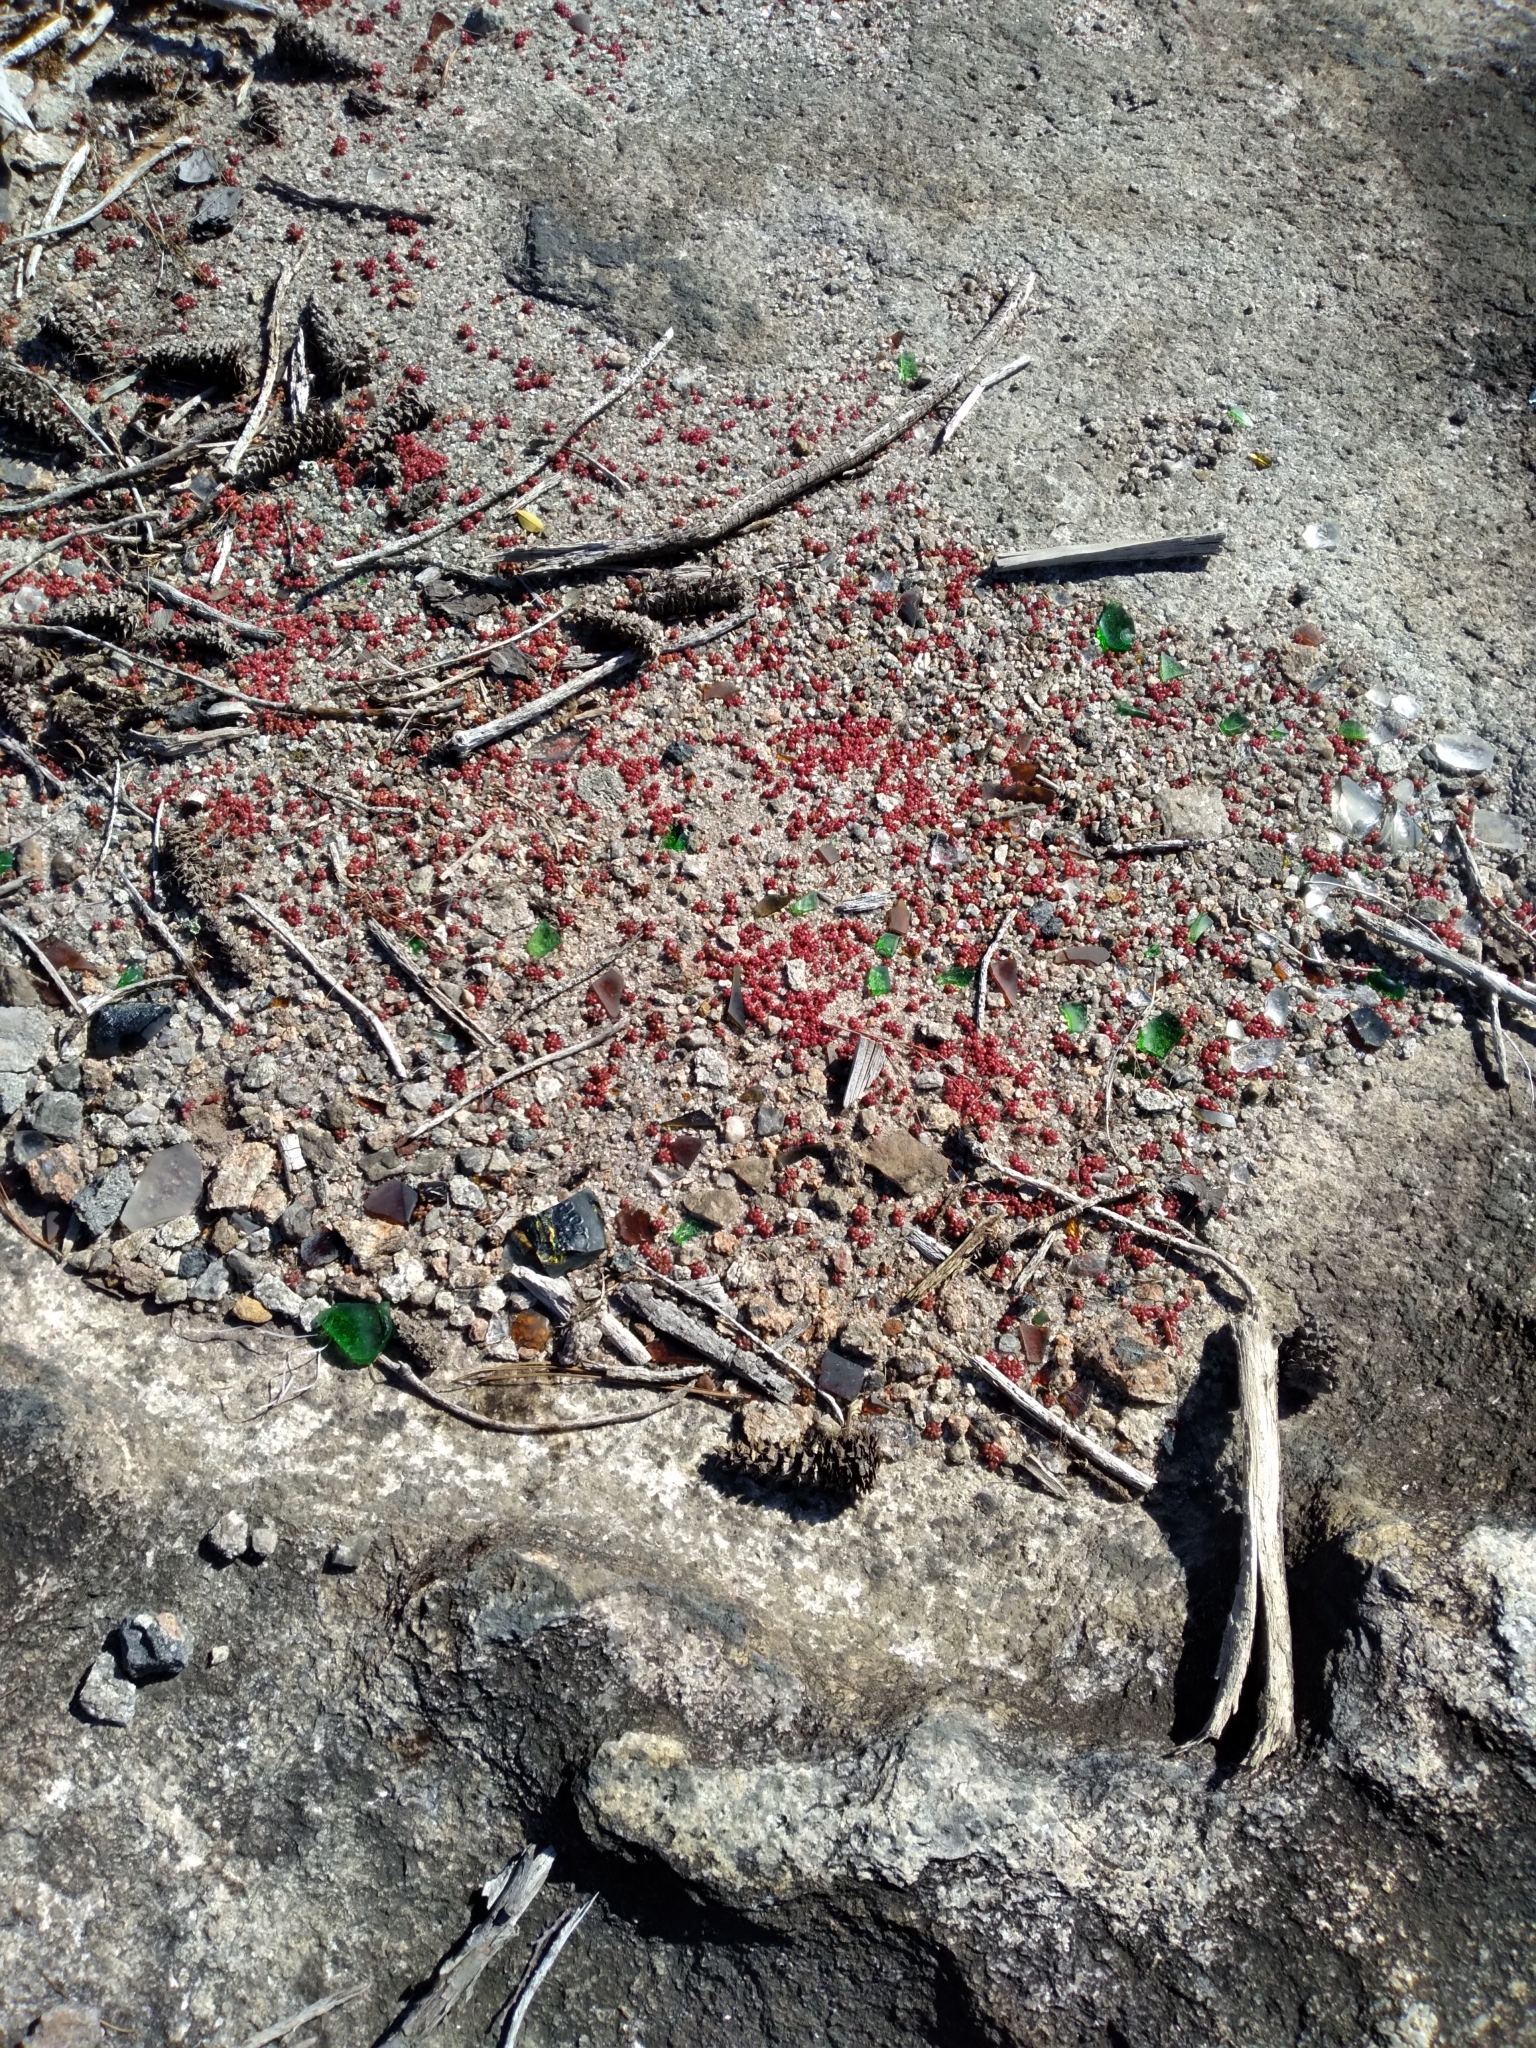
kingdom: Plantae
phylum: Tracheophyta
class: Magnoliopsida
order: Saxifragales
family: Crassulaceae
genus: Sedum
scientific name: Sedum smallii
